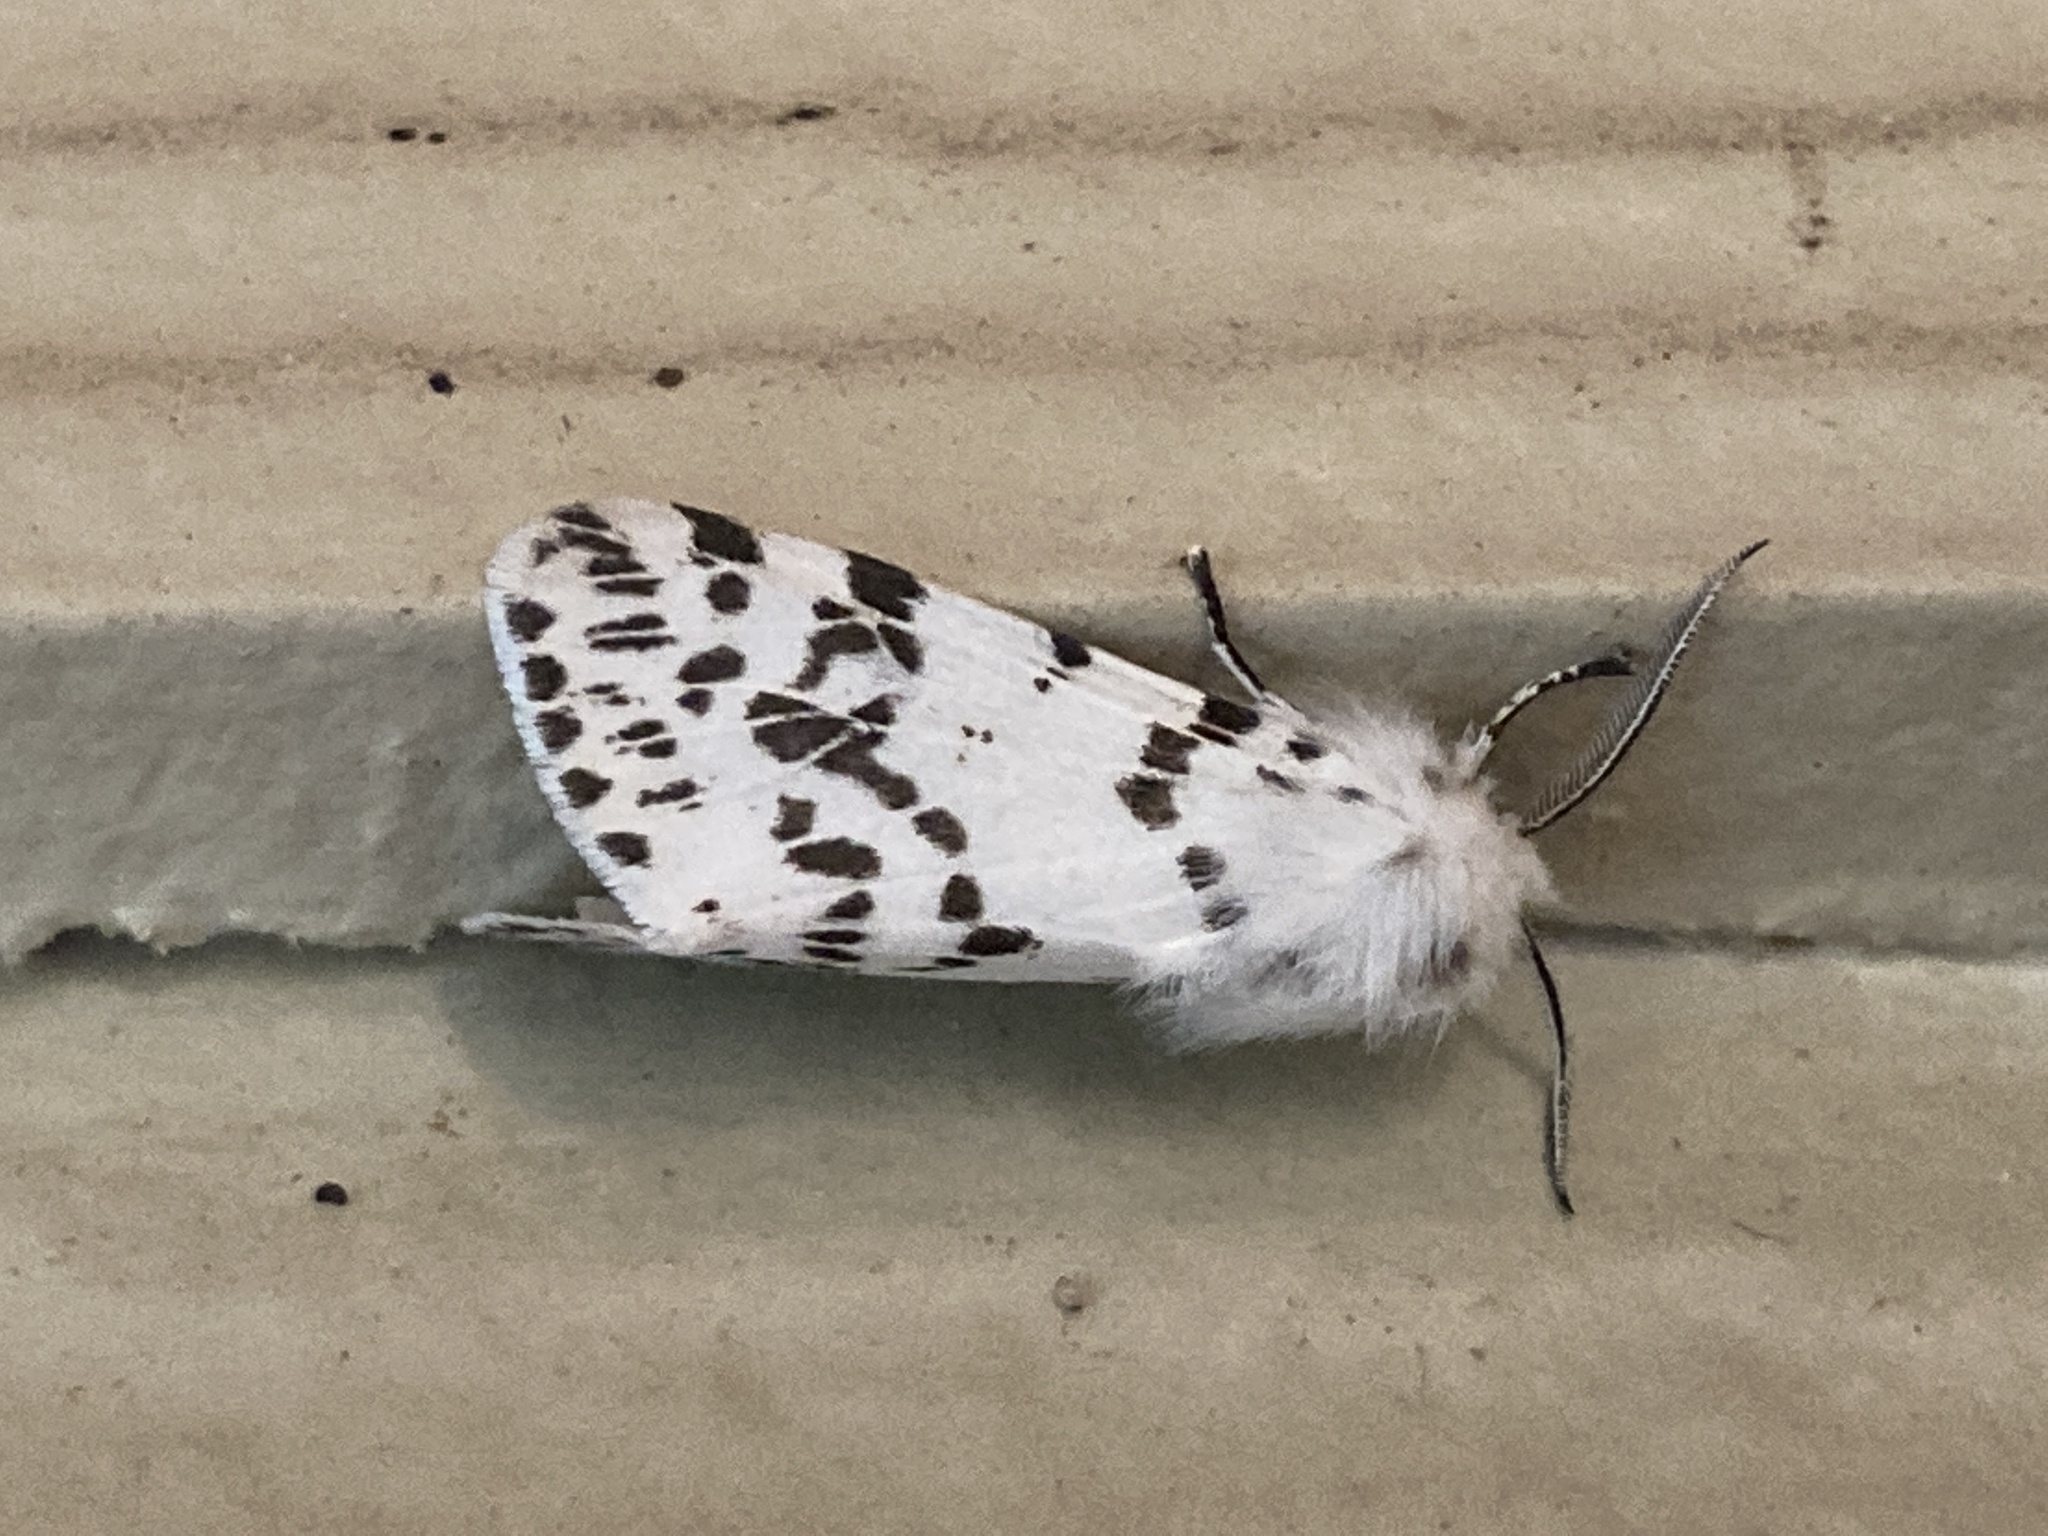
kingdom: Animalia
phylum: Arthropoda
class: Insecta
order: Lepidoptera
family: Erebidae
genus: Hyphantria
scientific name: Hyphantria cunea
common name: American white moth
